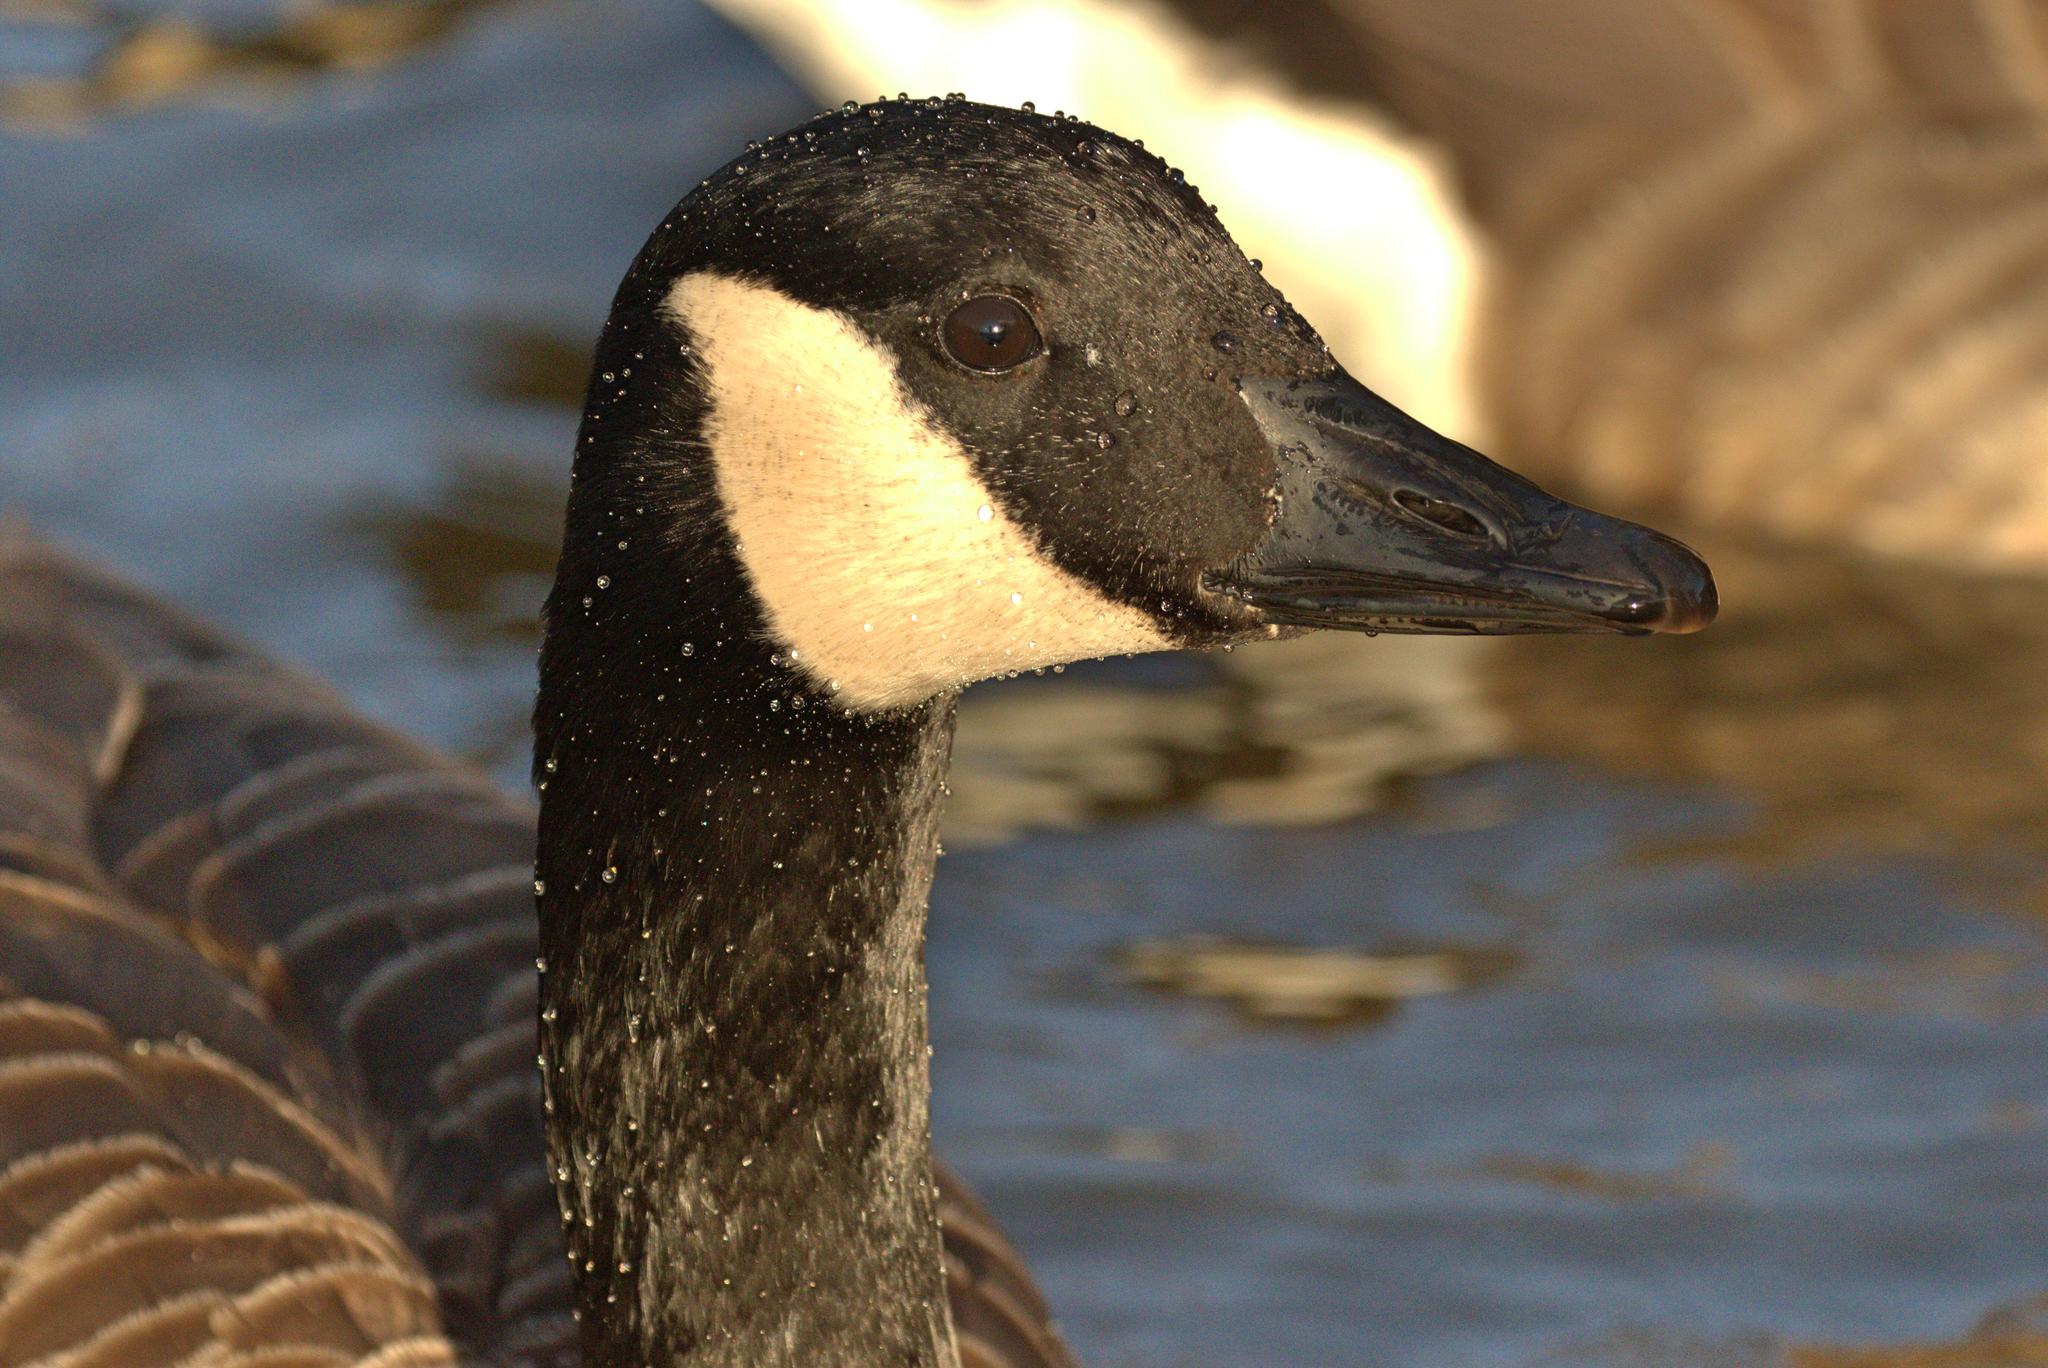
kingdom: Animalia
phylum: Chordata
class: Aves
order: Anseriformes
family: Anatidae
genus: Branta
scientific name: Branta canadensis
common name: Canada goose
